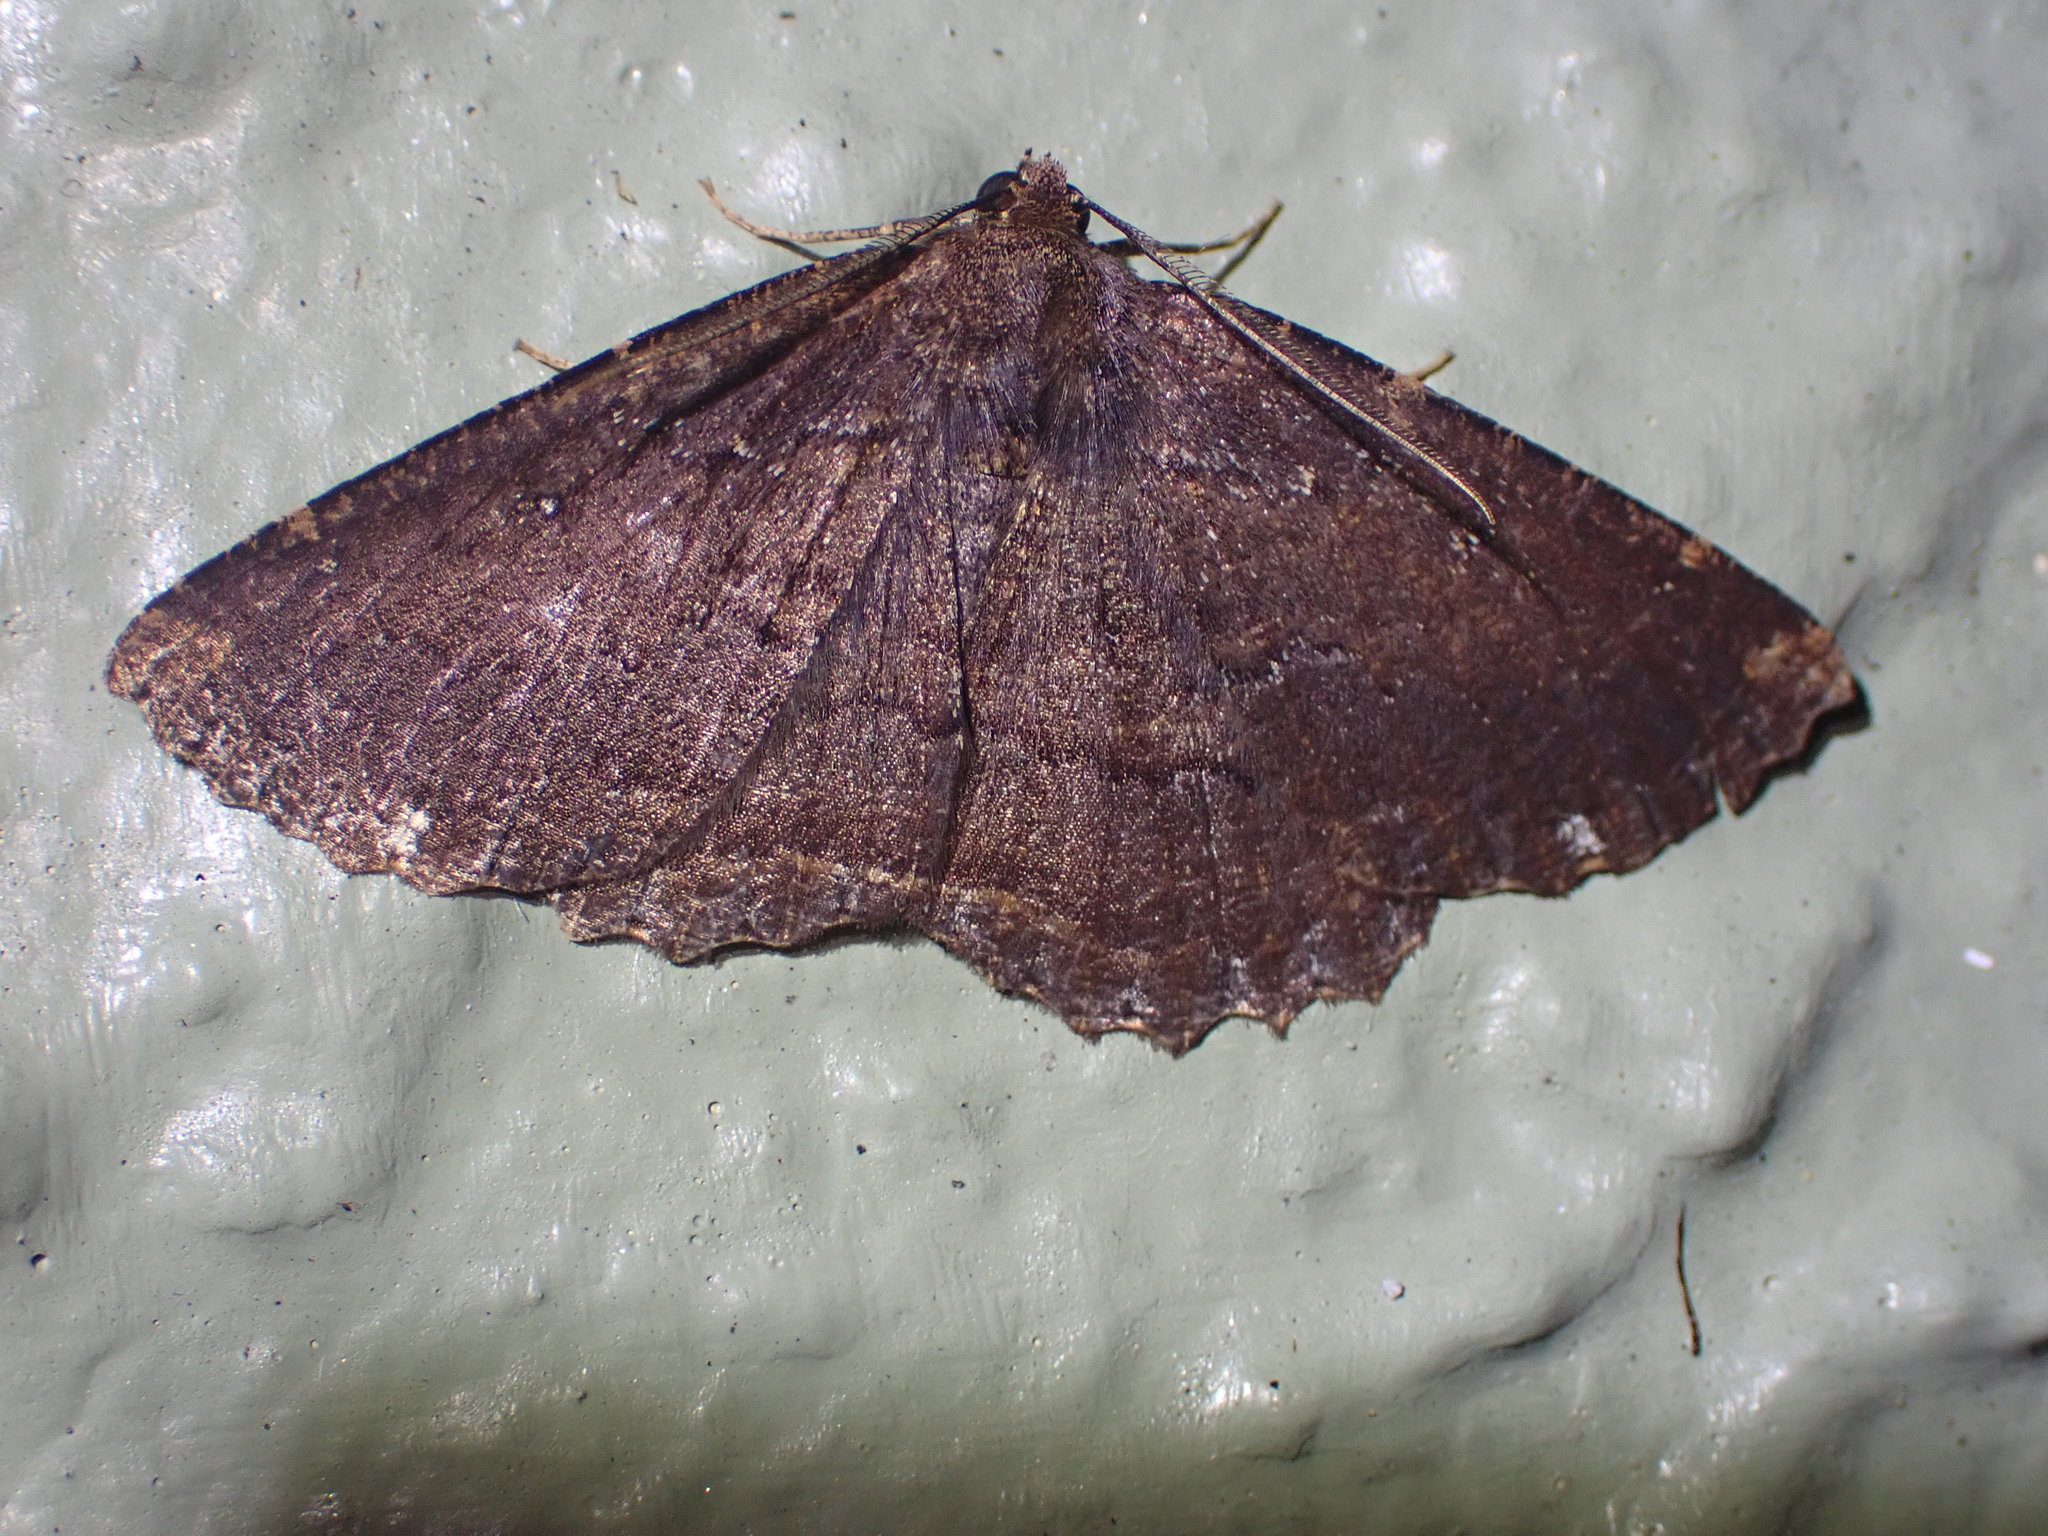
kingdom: Animalia
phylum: Arthropoda
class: Insecta
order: Lepidoptera
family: Geometridae
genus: Gellonia
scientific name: Gellonia dejectaria
